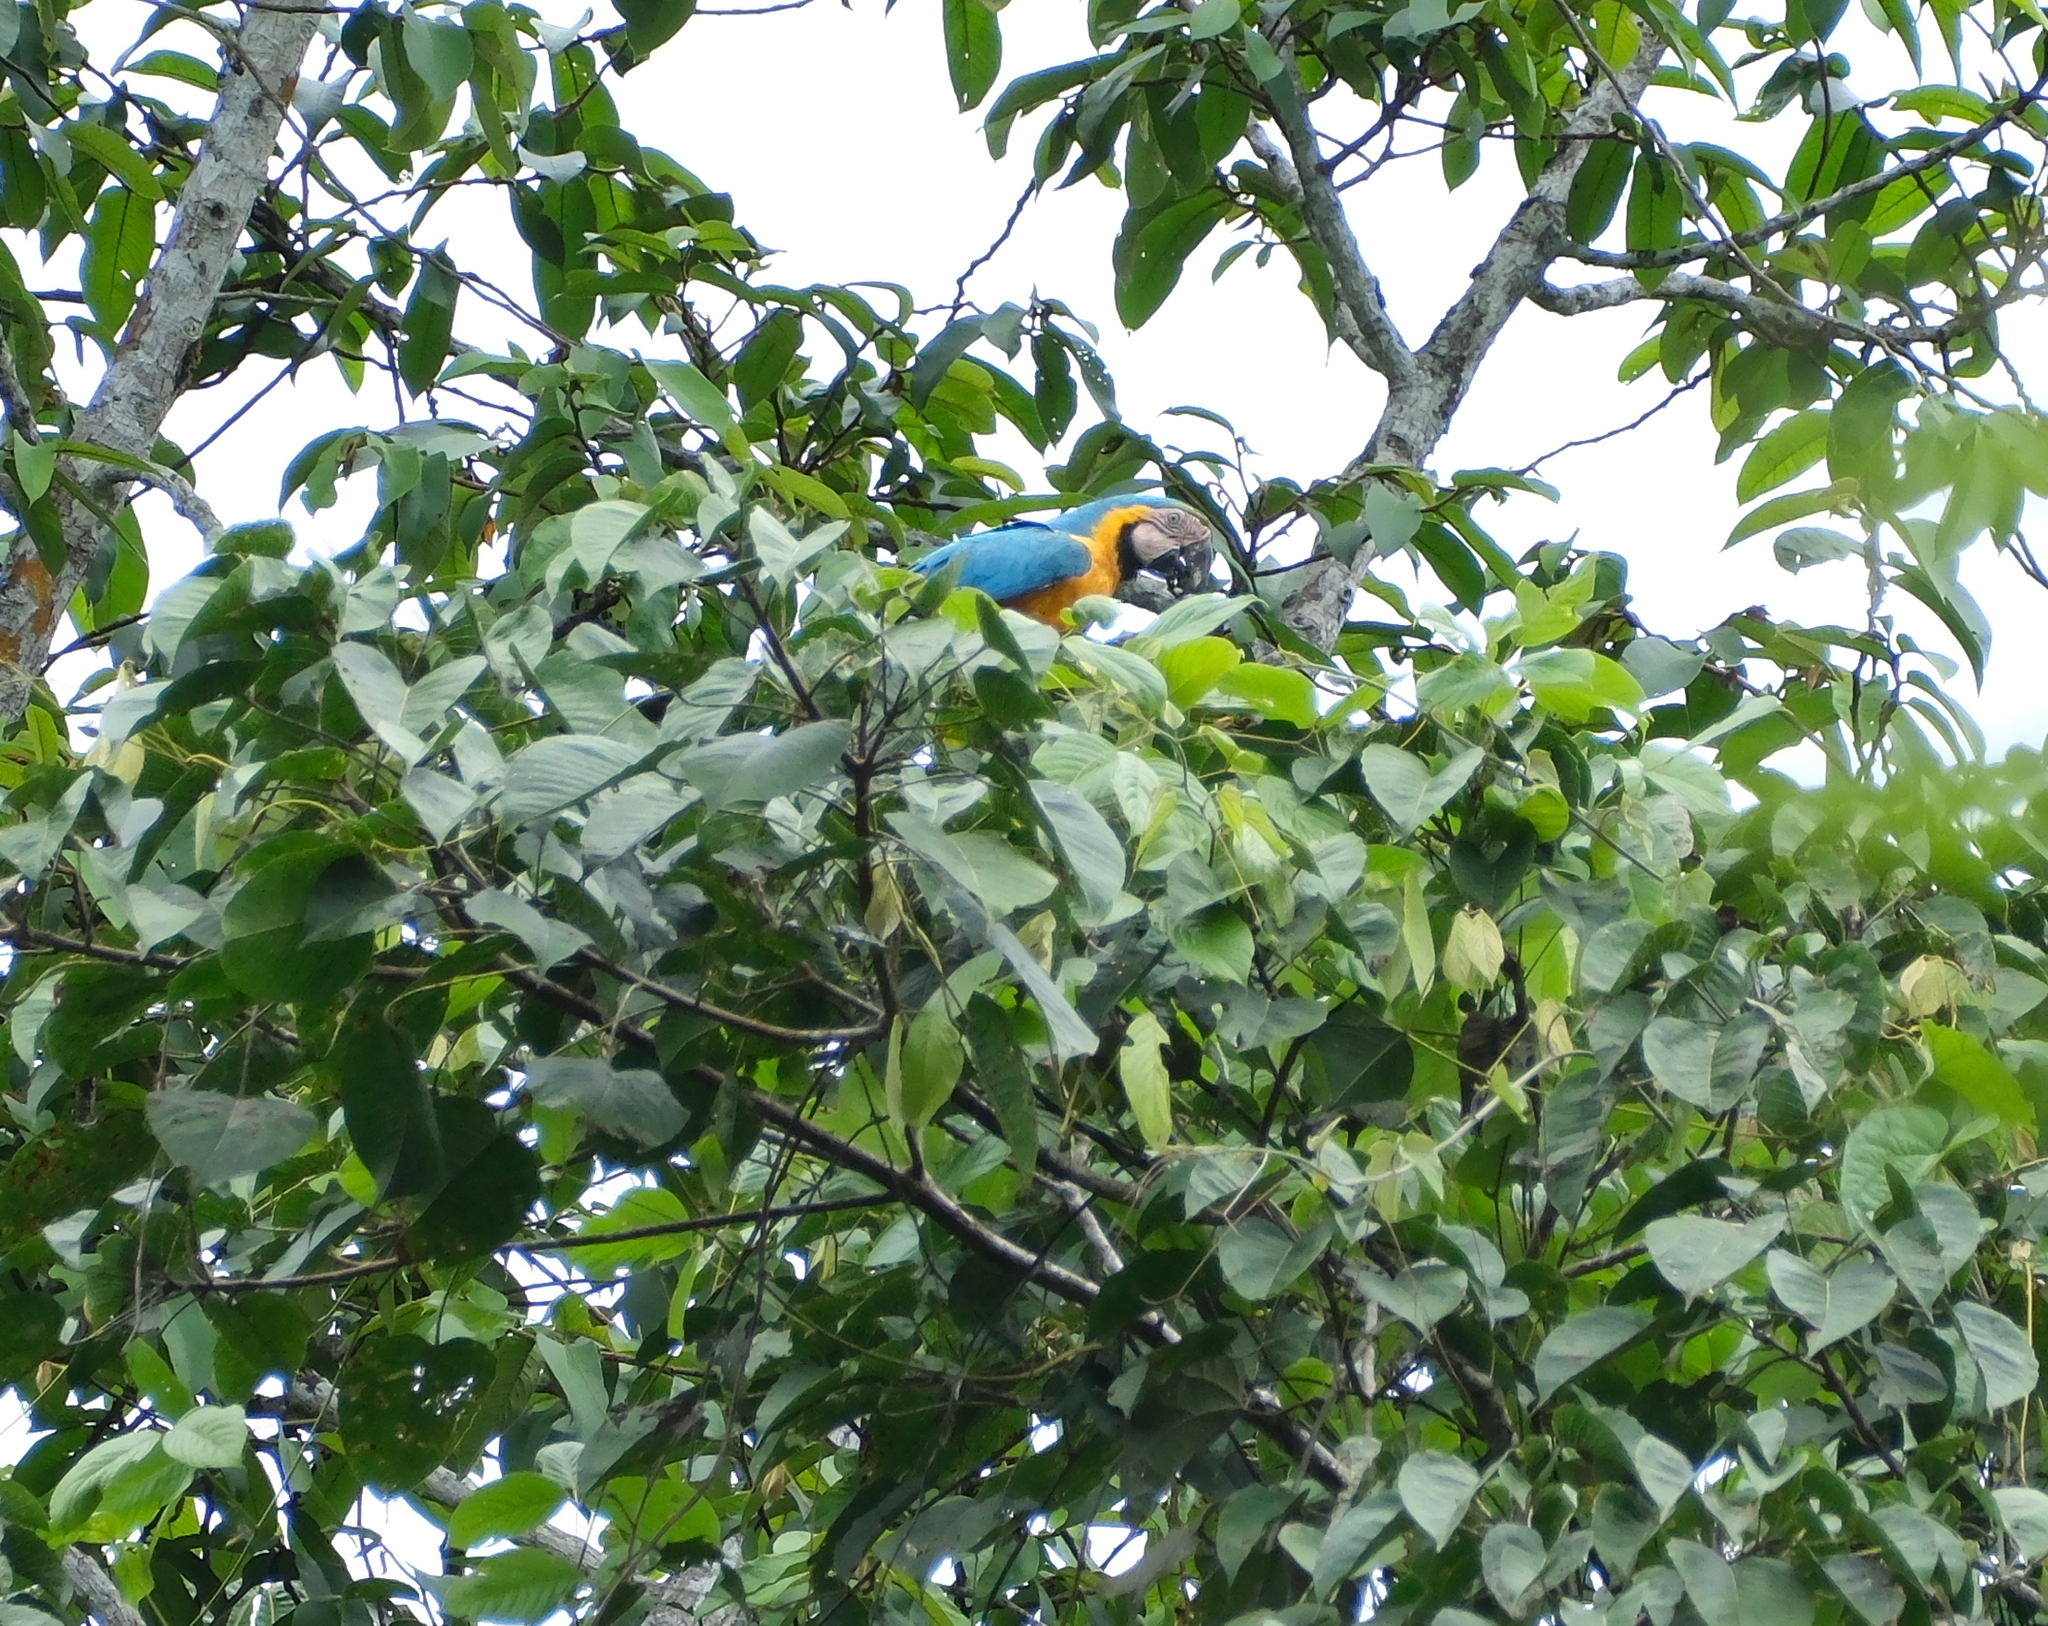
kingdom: Animalia
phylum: Chordata
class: Aves
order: Psittaciformes
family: Psittacidae
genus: Ara
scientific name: Ara ararauna
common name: Blue-and-yellow macaw
